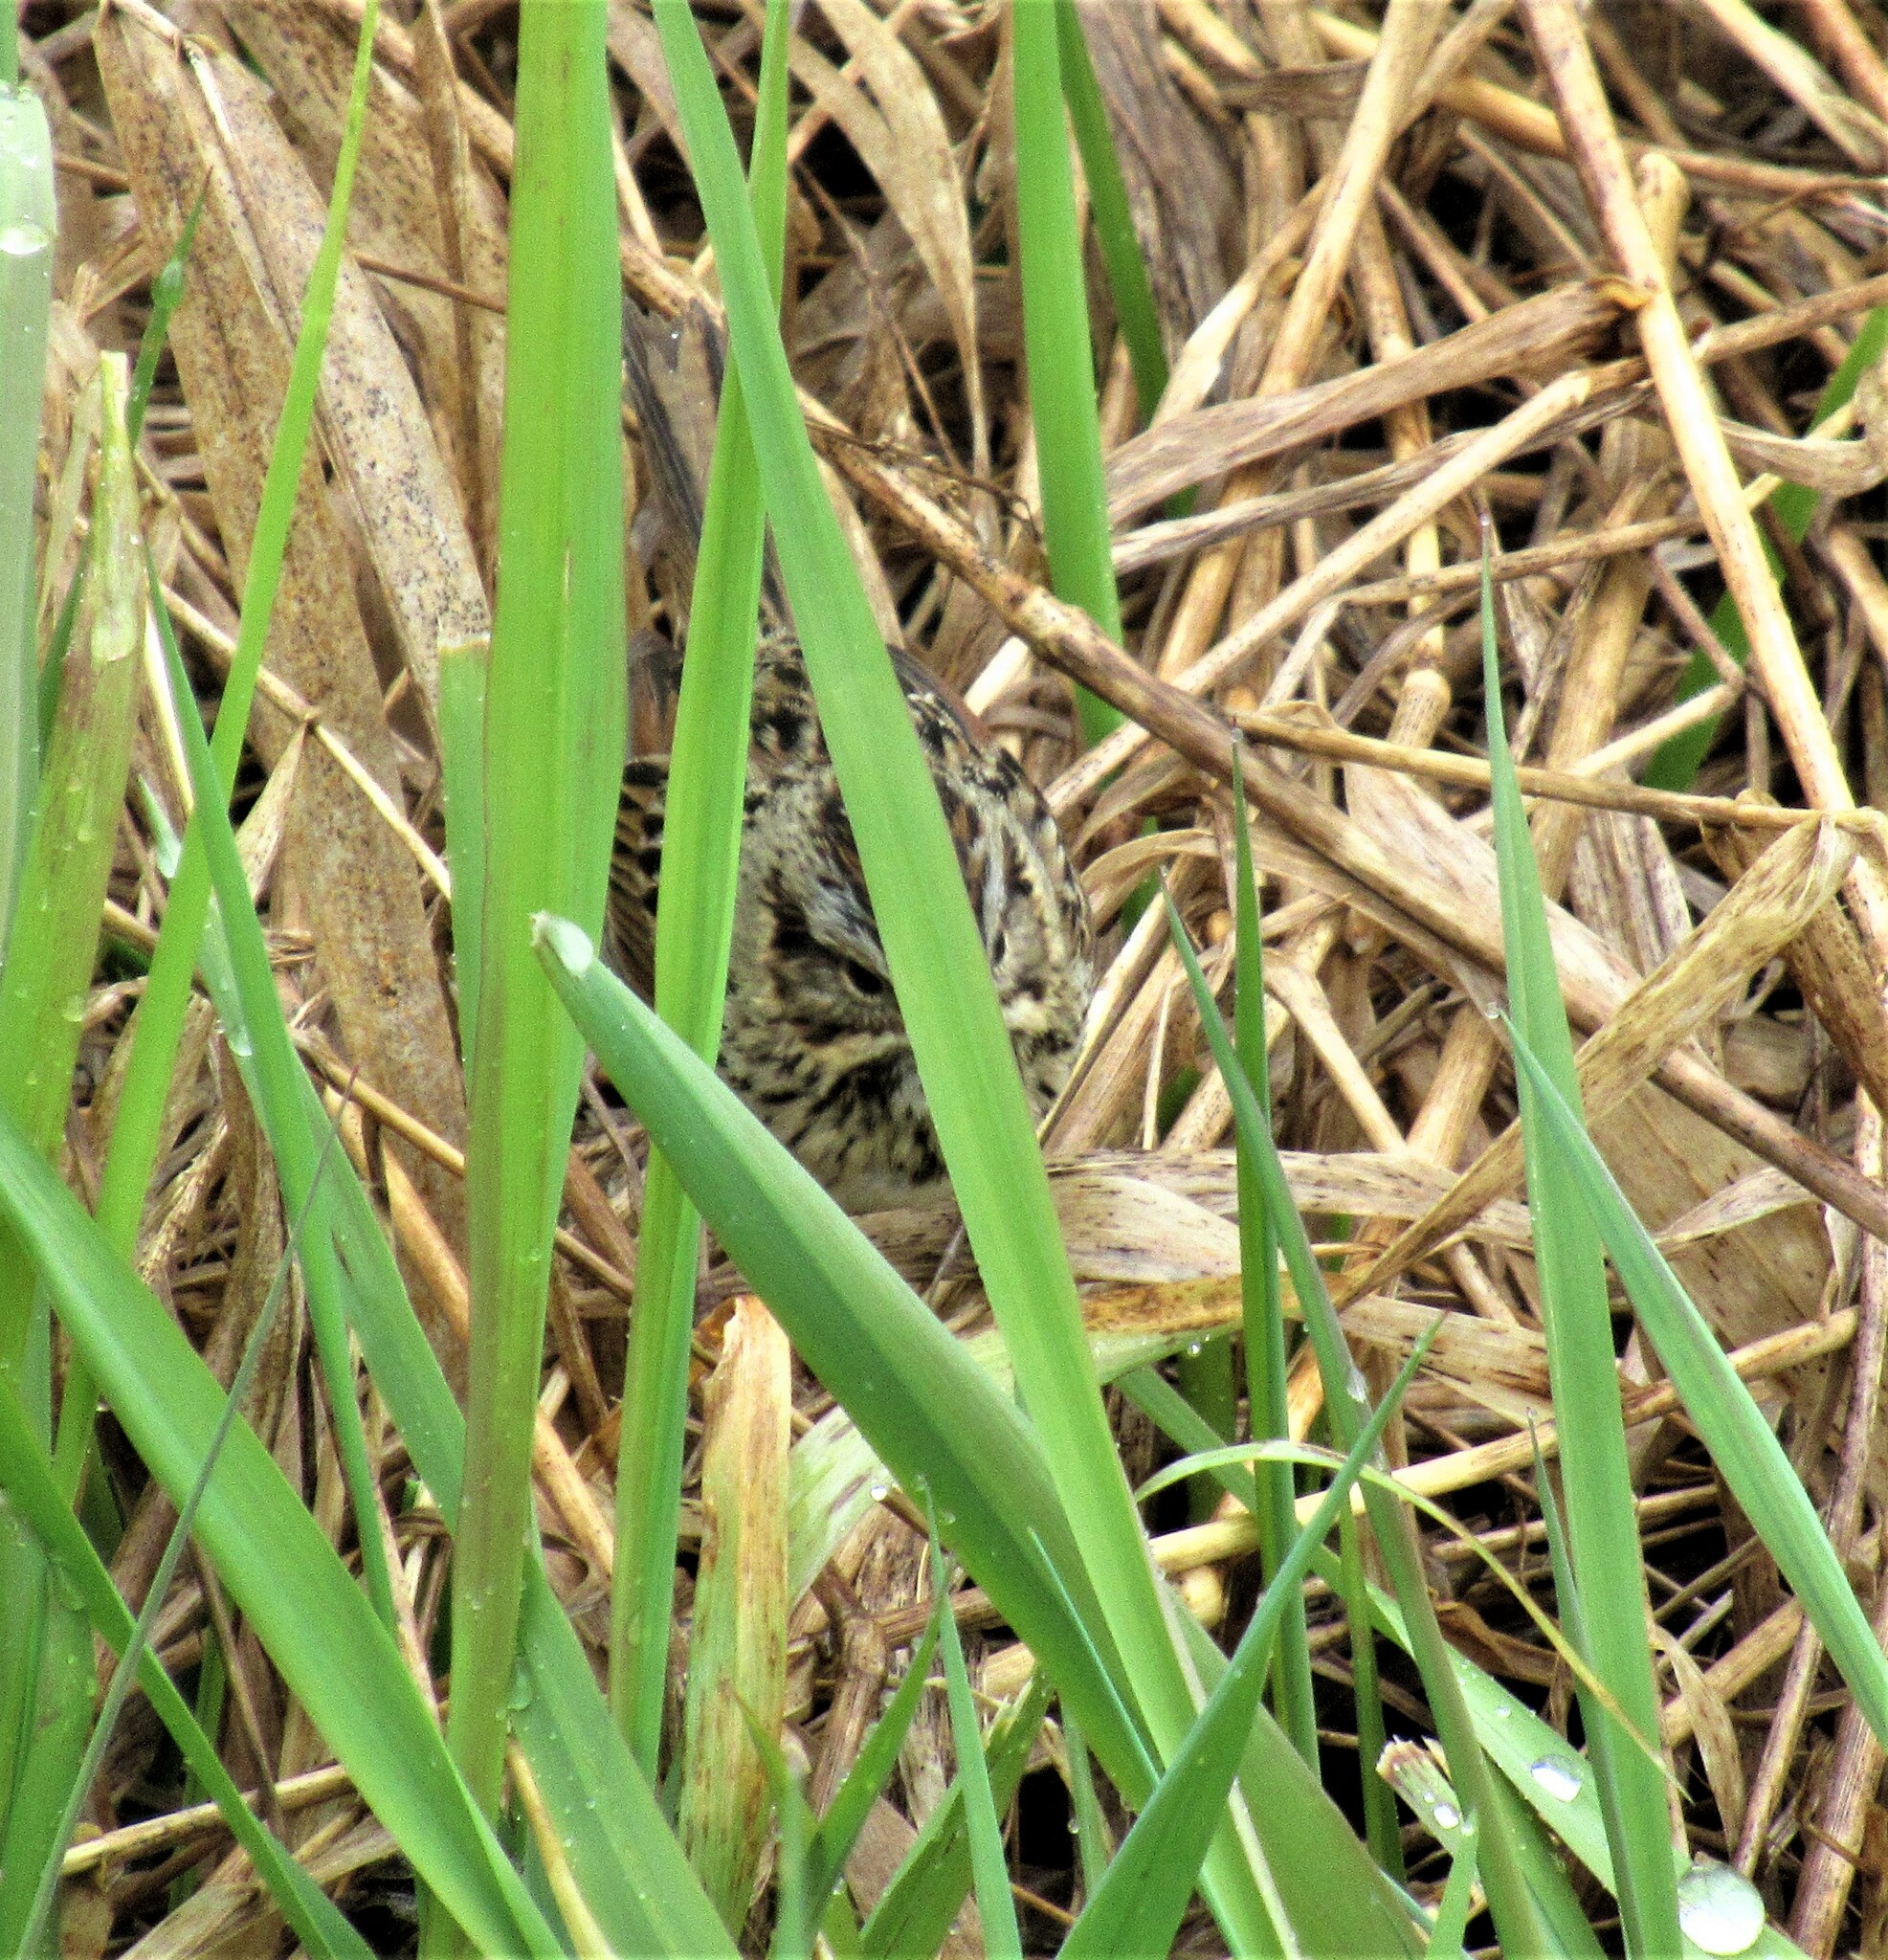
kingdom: Animalia
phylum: Chordata
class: Aves
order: Passeriformes
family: Passerellidae
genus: Melospiza
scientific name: Melospiza lincolnii
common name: Lincoln's sparrow
